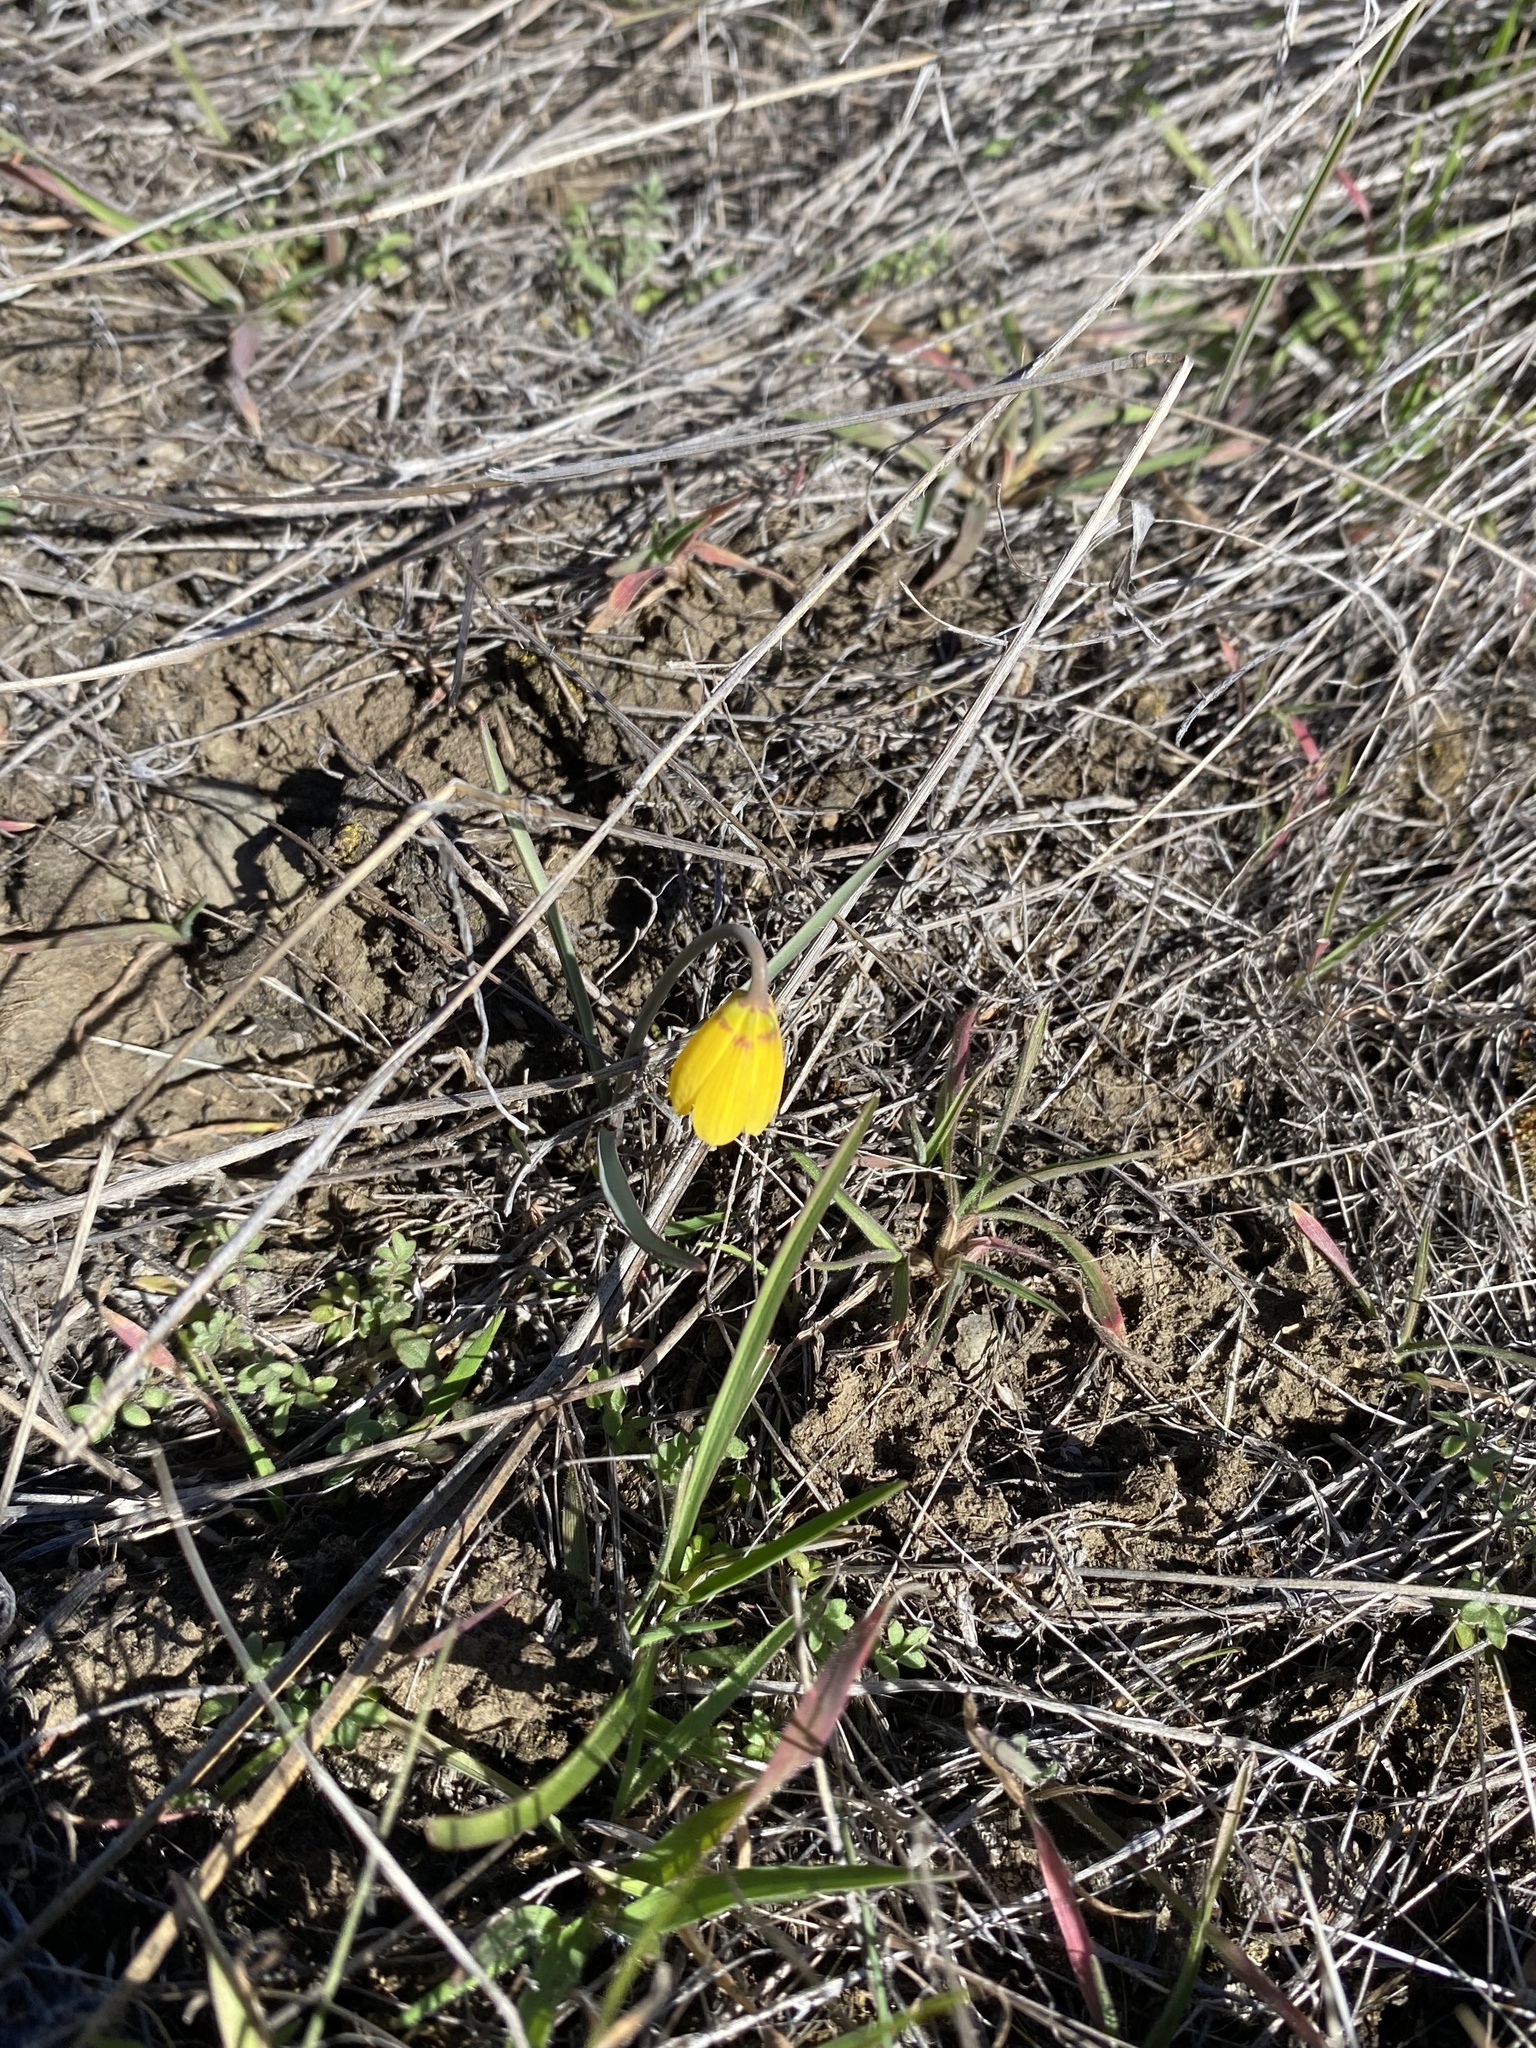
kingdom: Plantae
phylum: Tracheophyta
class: Liliopsida
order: Liliales
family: Liliaceae
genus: Fritillaria
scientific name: Fritillaria pudica
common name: Yellow fritillary
